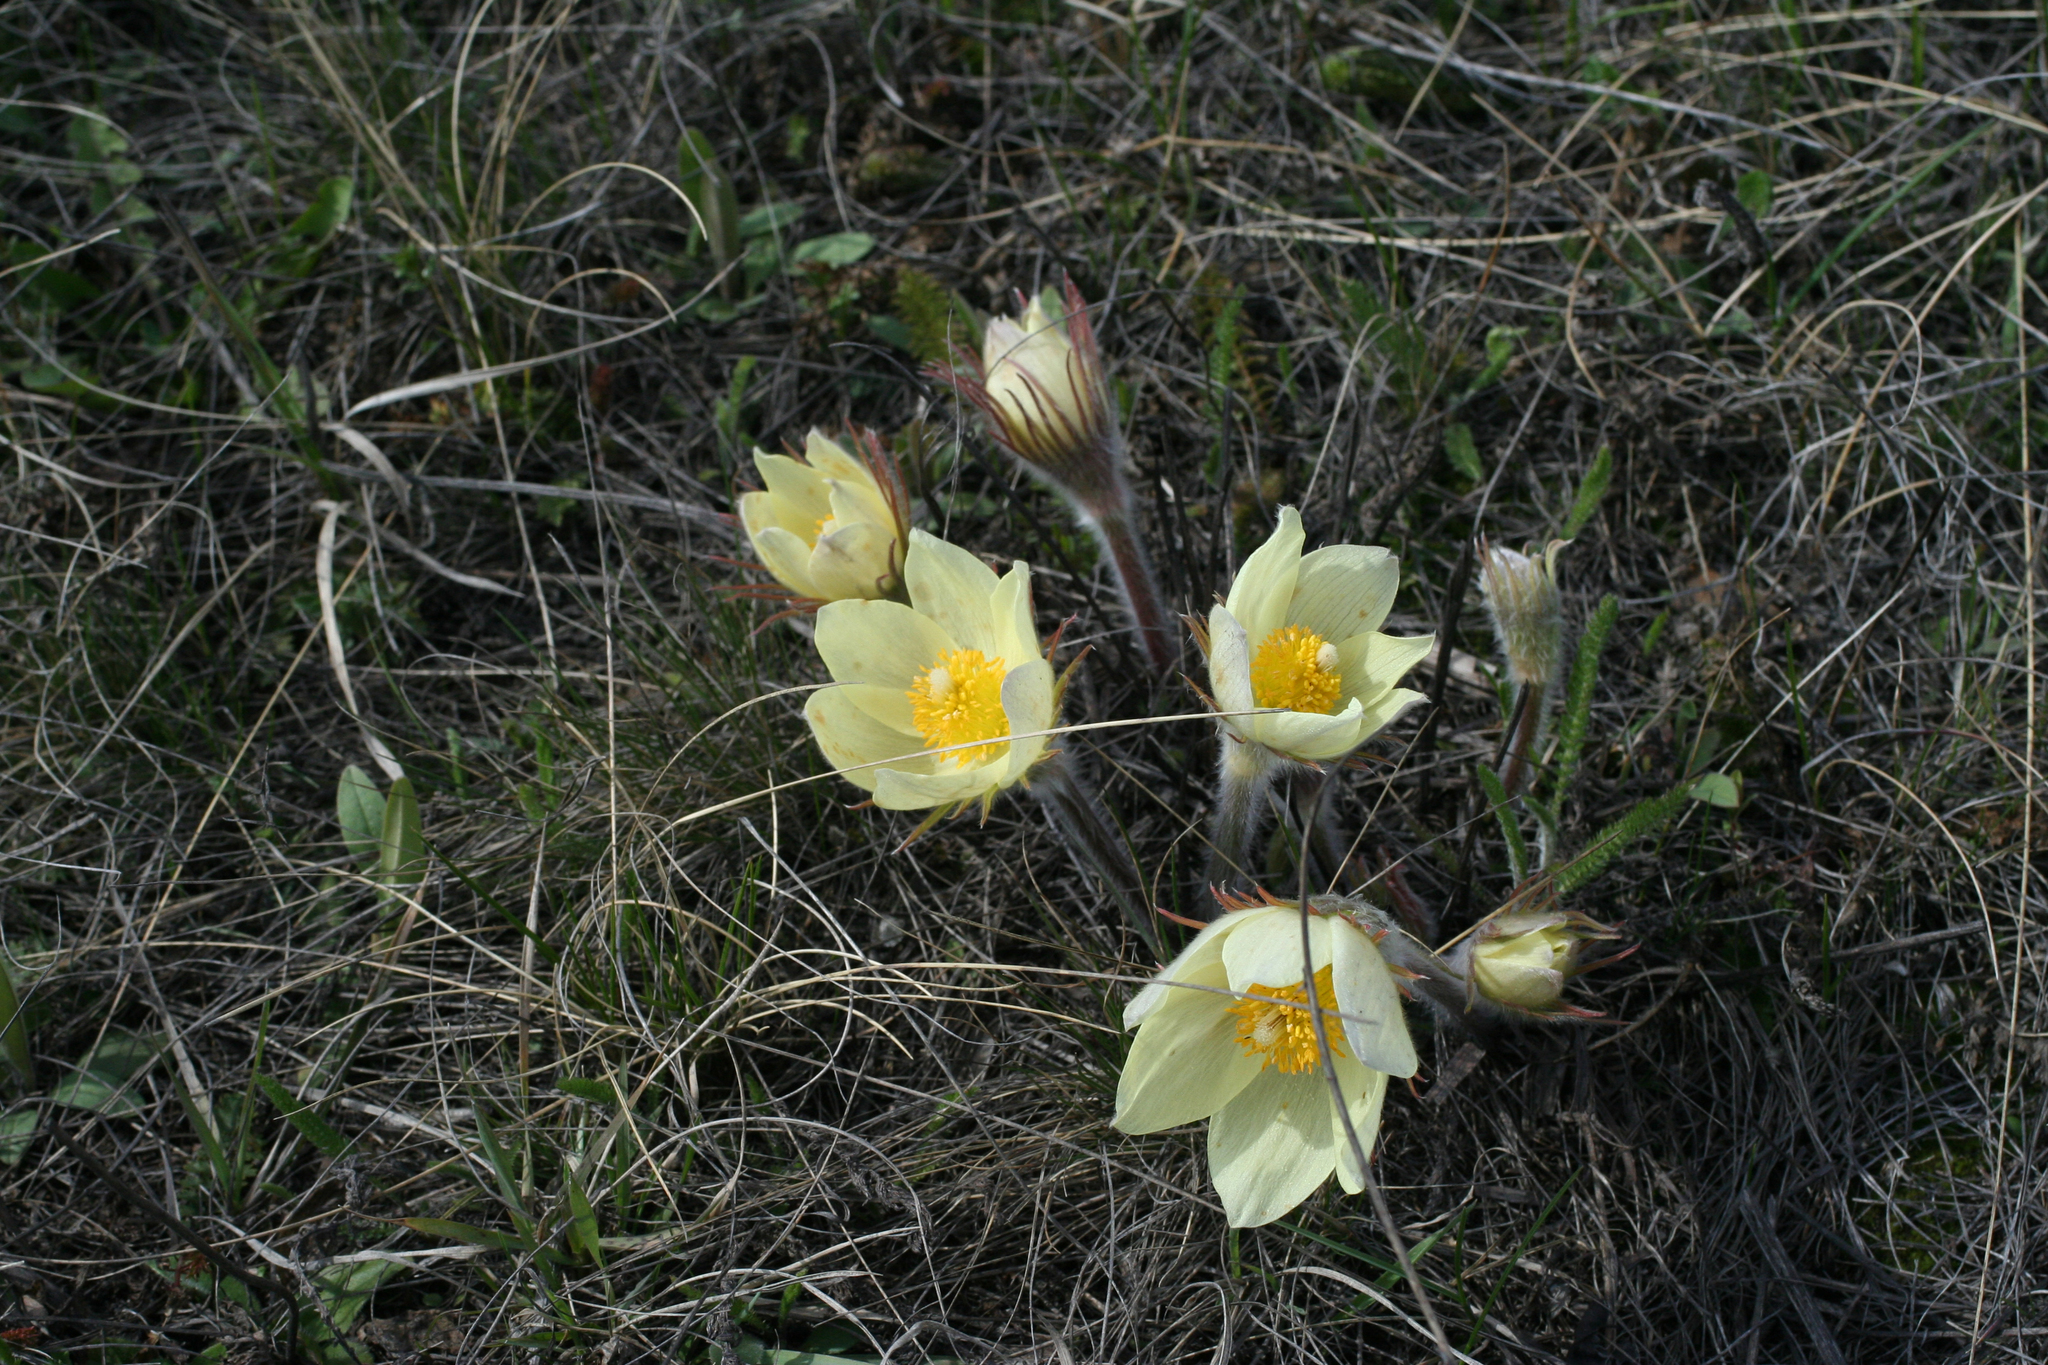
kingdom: Plantae
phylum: Tracheophyta
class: Magnoliopsida
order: Ranunculales
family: Ranunculaceae
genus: Pulsatilla
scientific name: Pulsatilla patens
